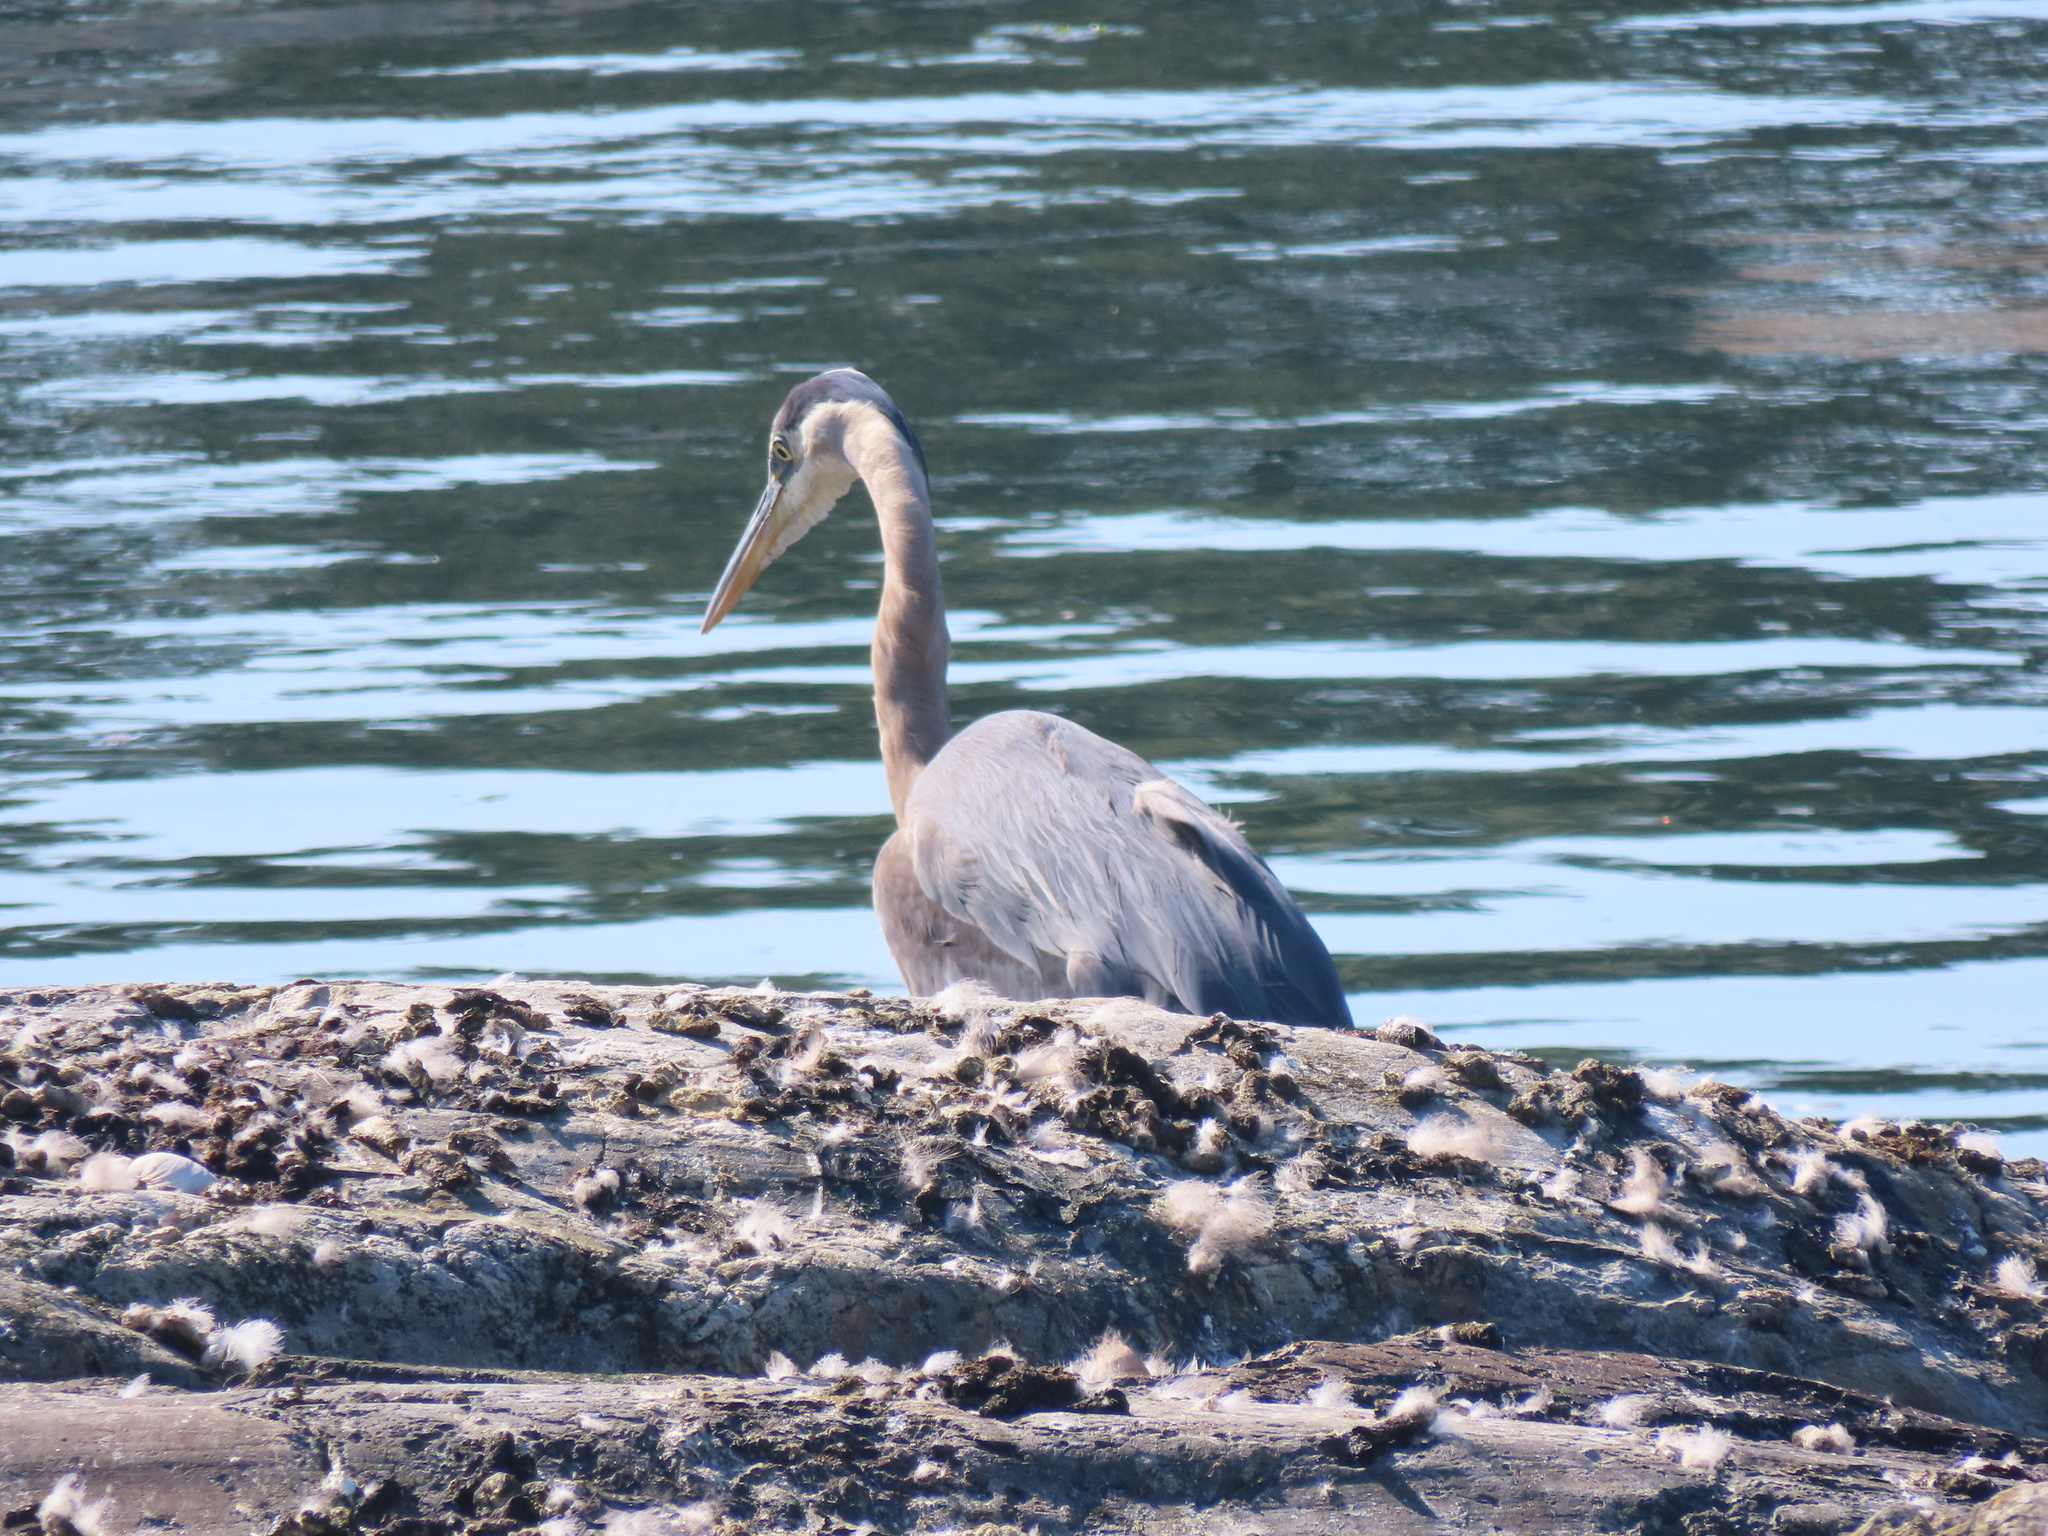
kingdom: Animalia
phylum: Chordata
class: Aves
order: Pelecaniformes
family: Ardeidae
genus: Ardea
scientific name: Ardea herodias
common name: Great blue heron
